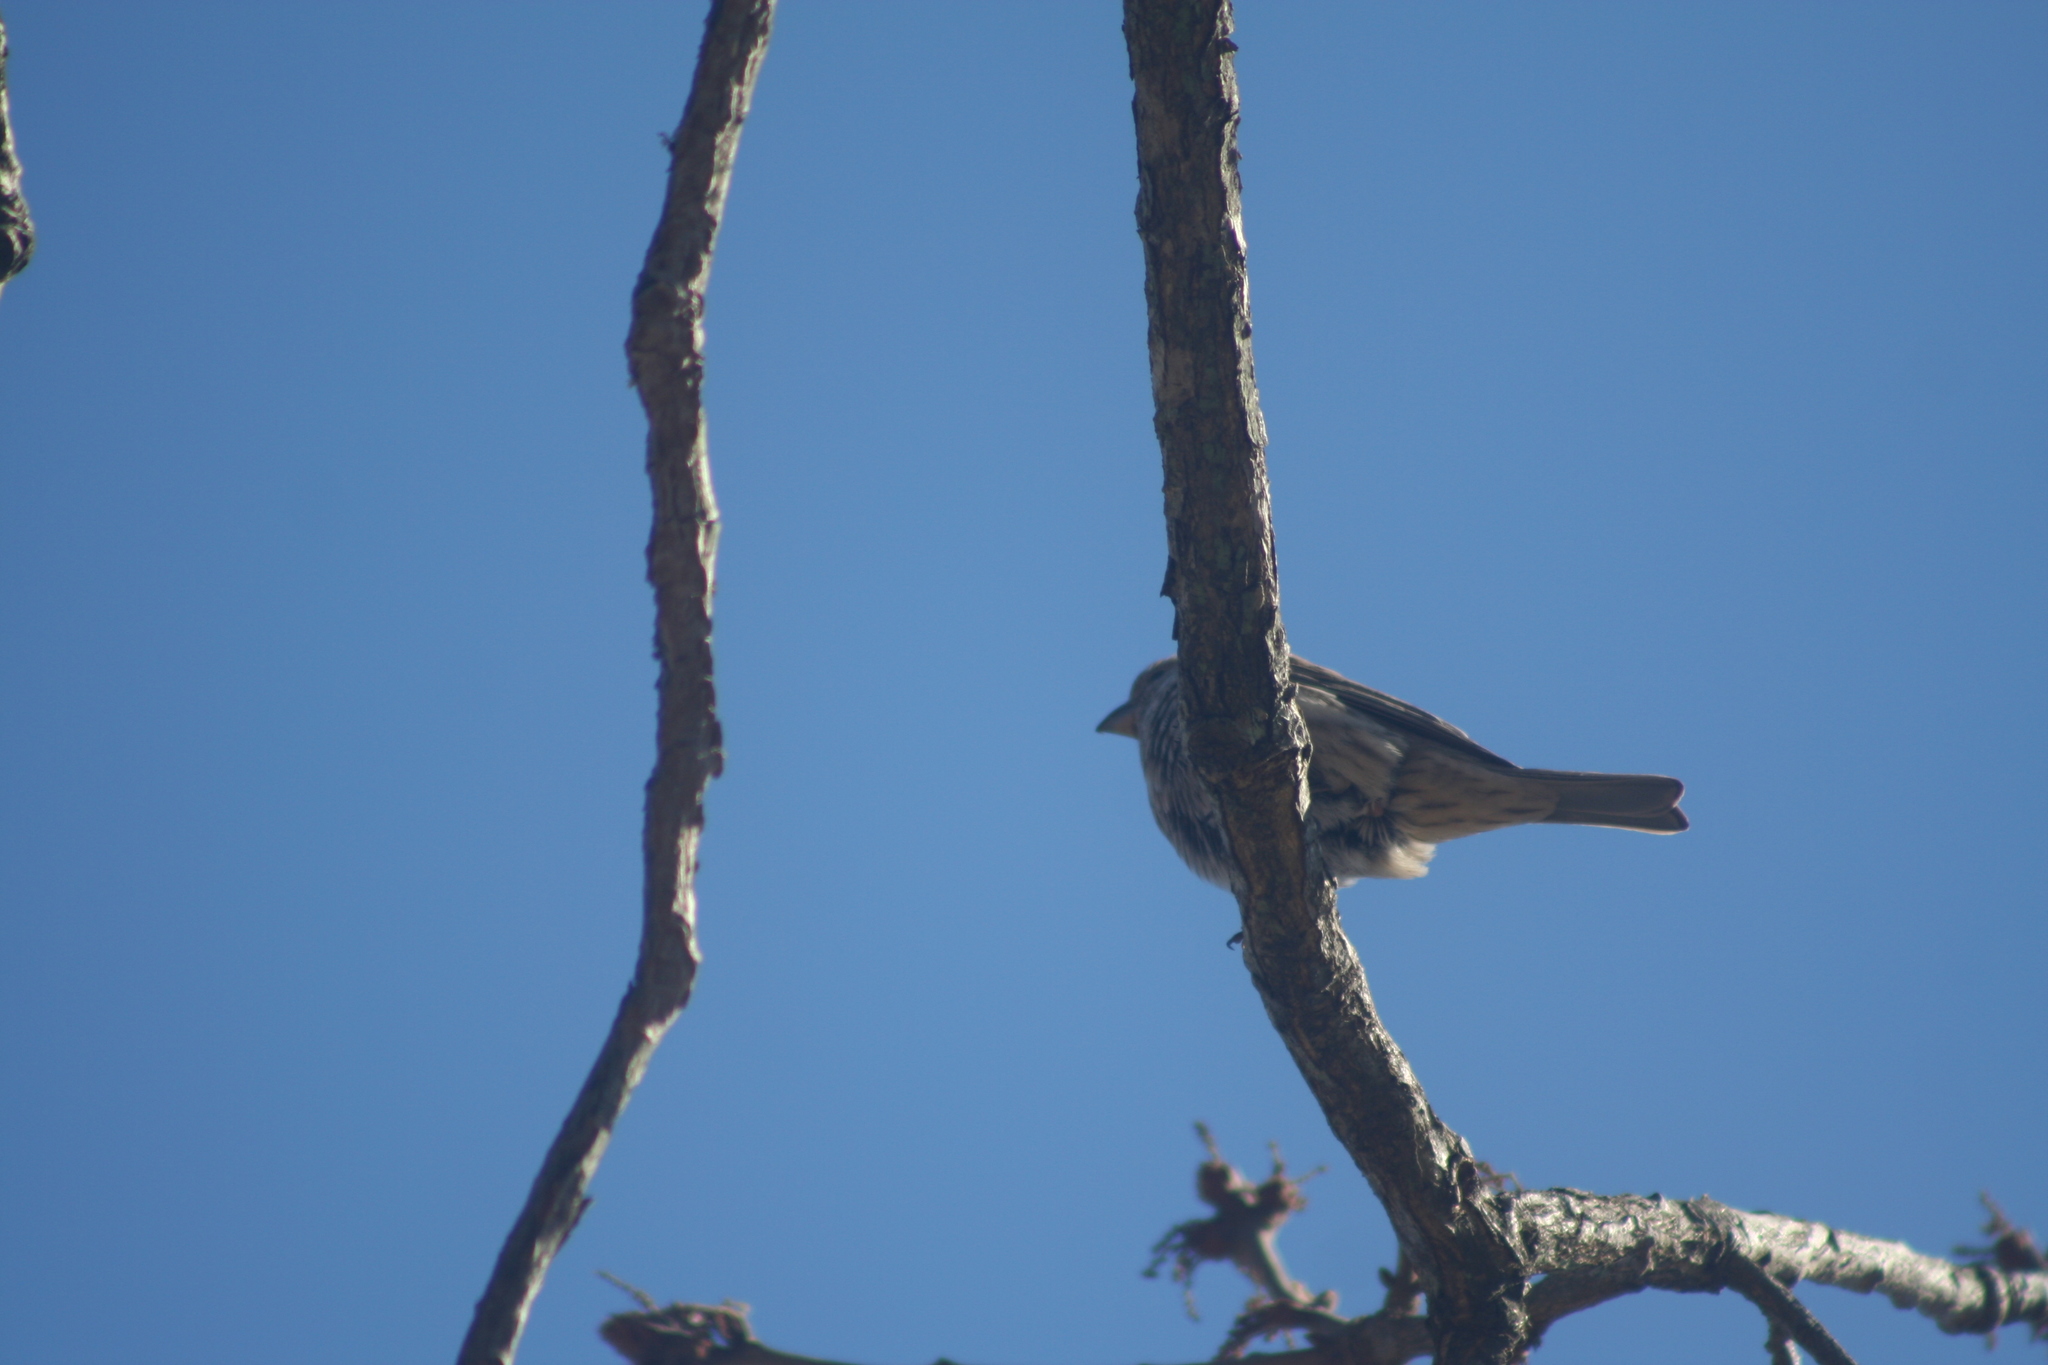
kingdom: Animalia
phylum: Chordata
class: Aves
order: Passeriformes
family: Fringillidae
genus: Haemorhous
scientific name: Haemorhous mexicanus
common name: House finch
